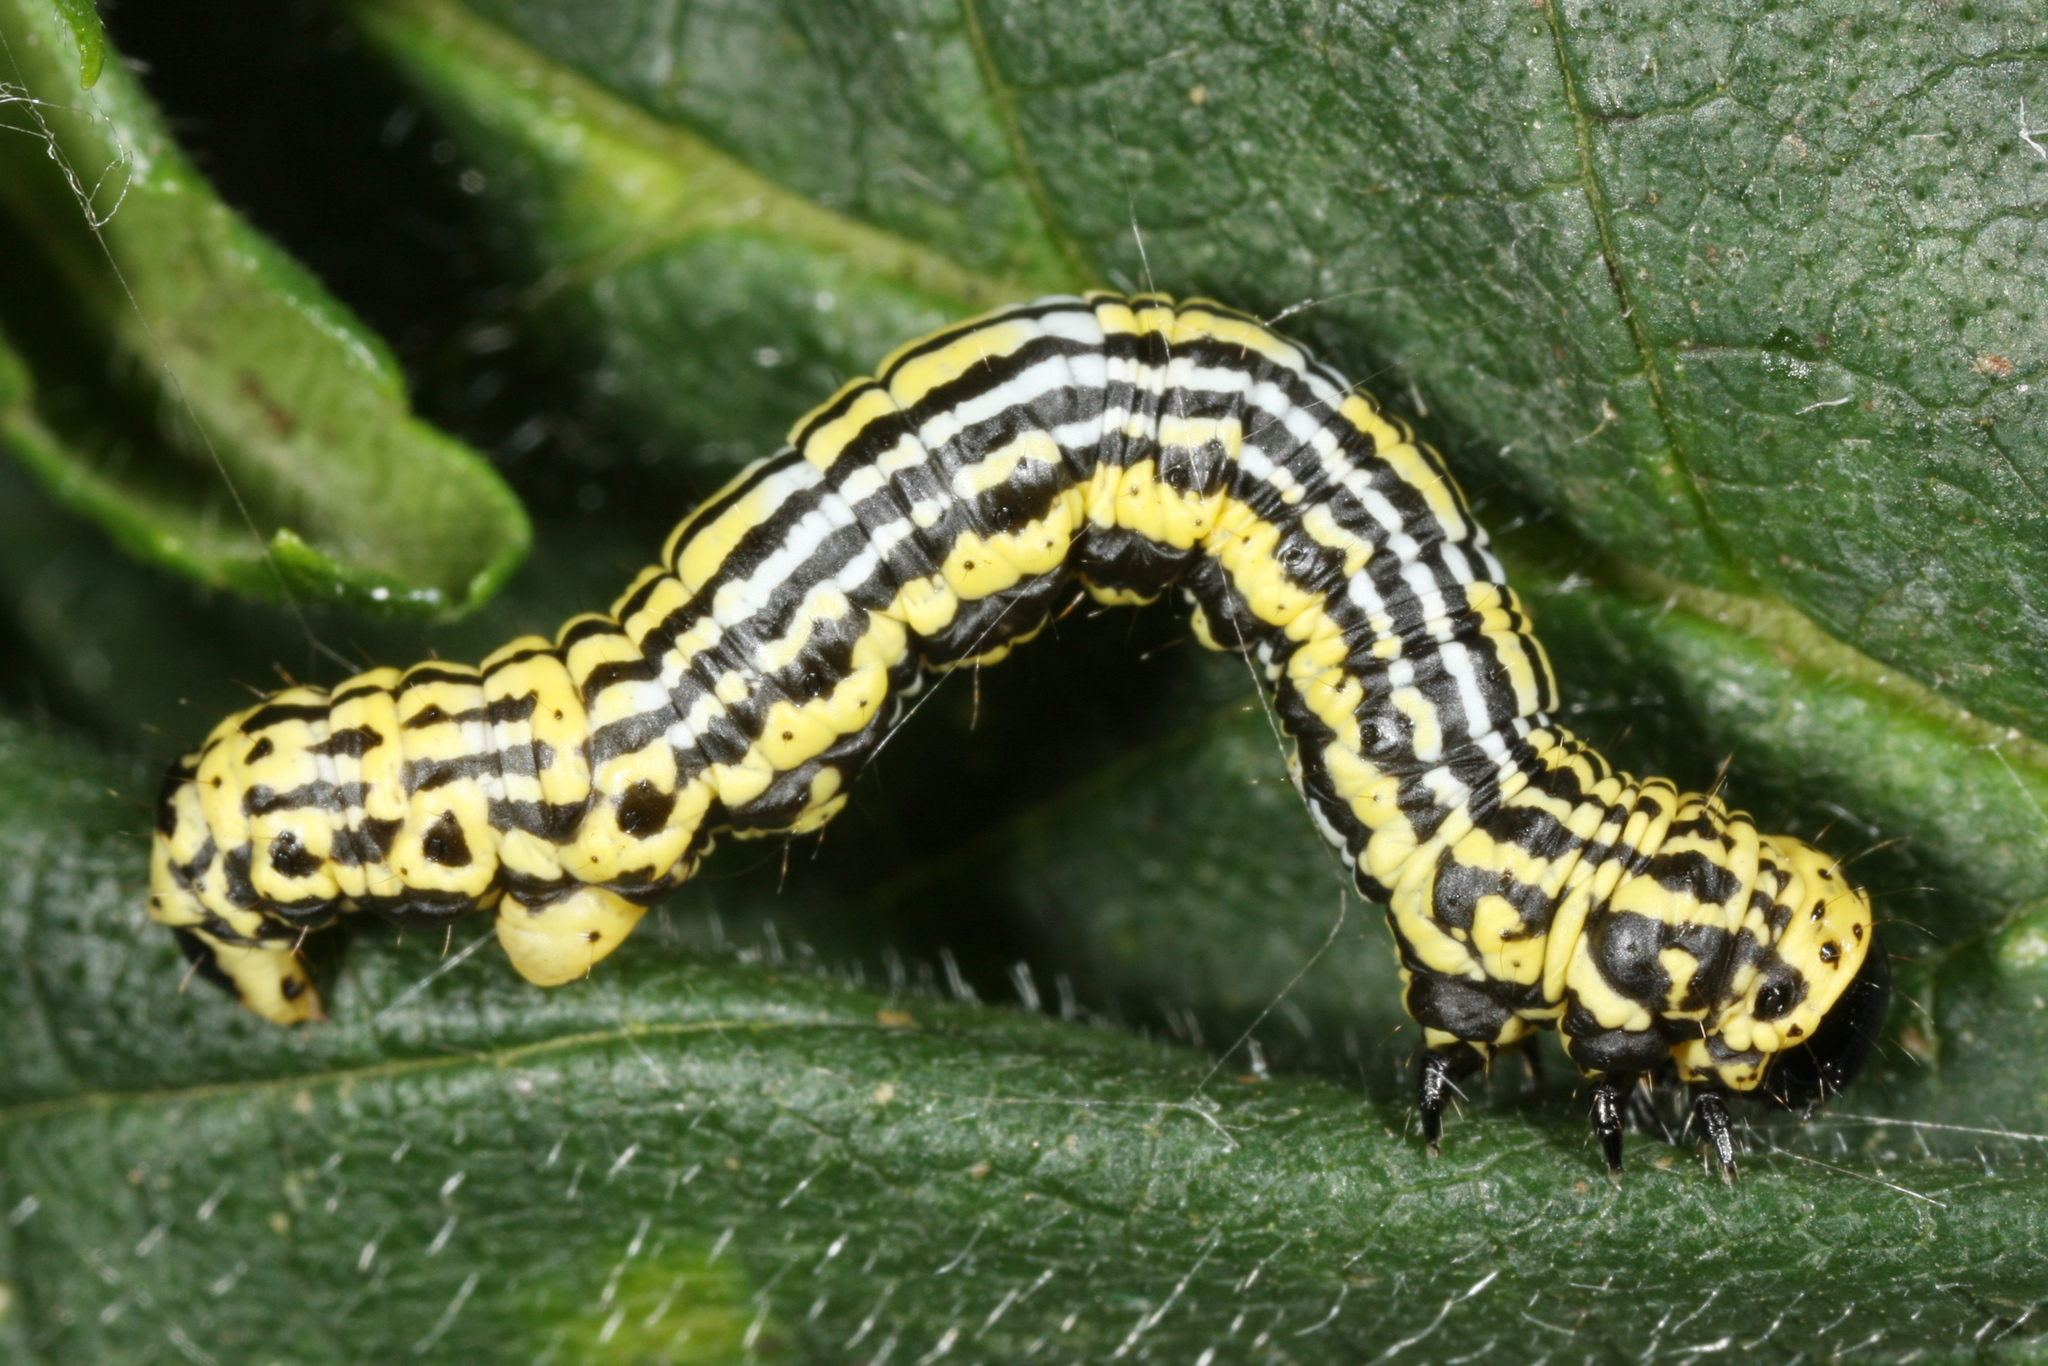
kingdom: Animalia
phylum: Arthropoda
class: Insecta
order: Lepidoptera
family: Geometridae
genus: Abraxas
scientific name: Abraxas sylvata
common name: Clouded magpie
